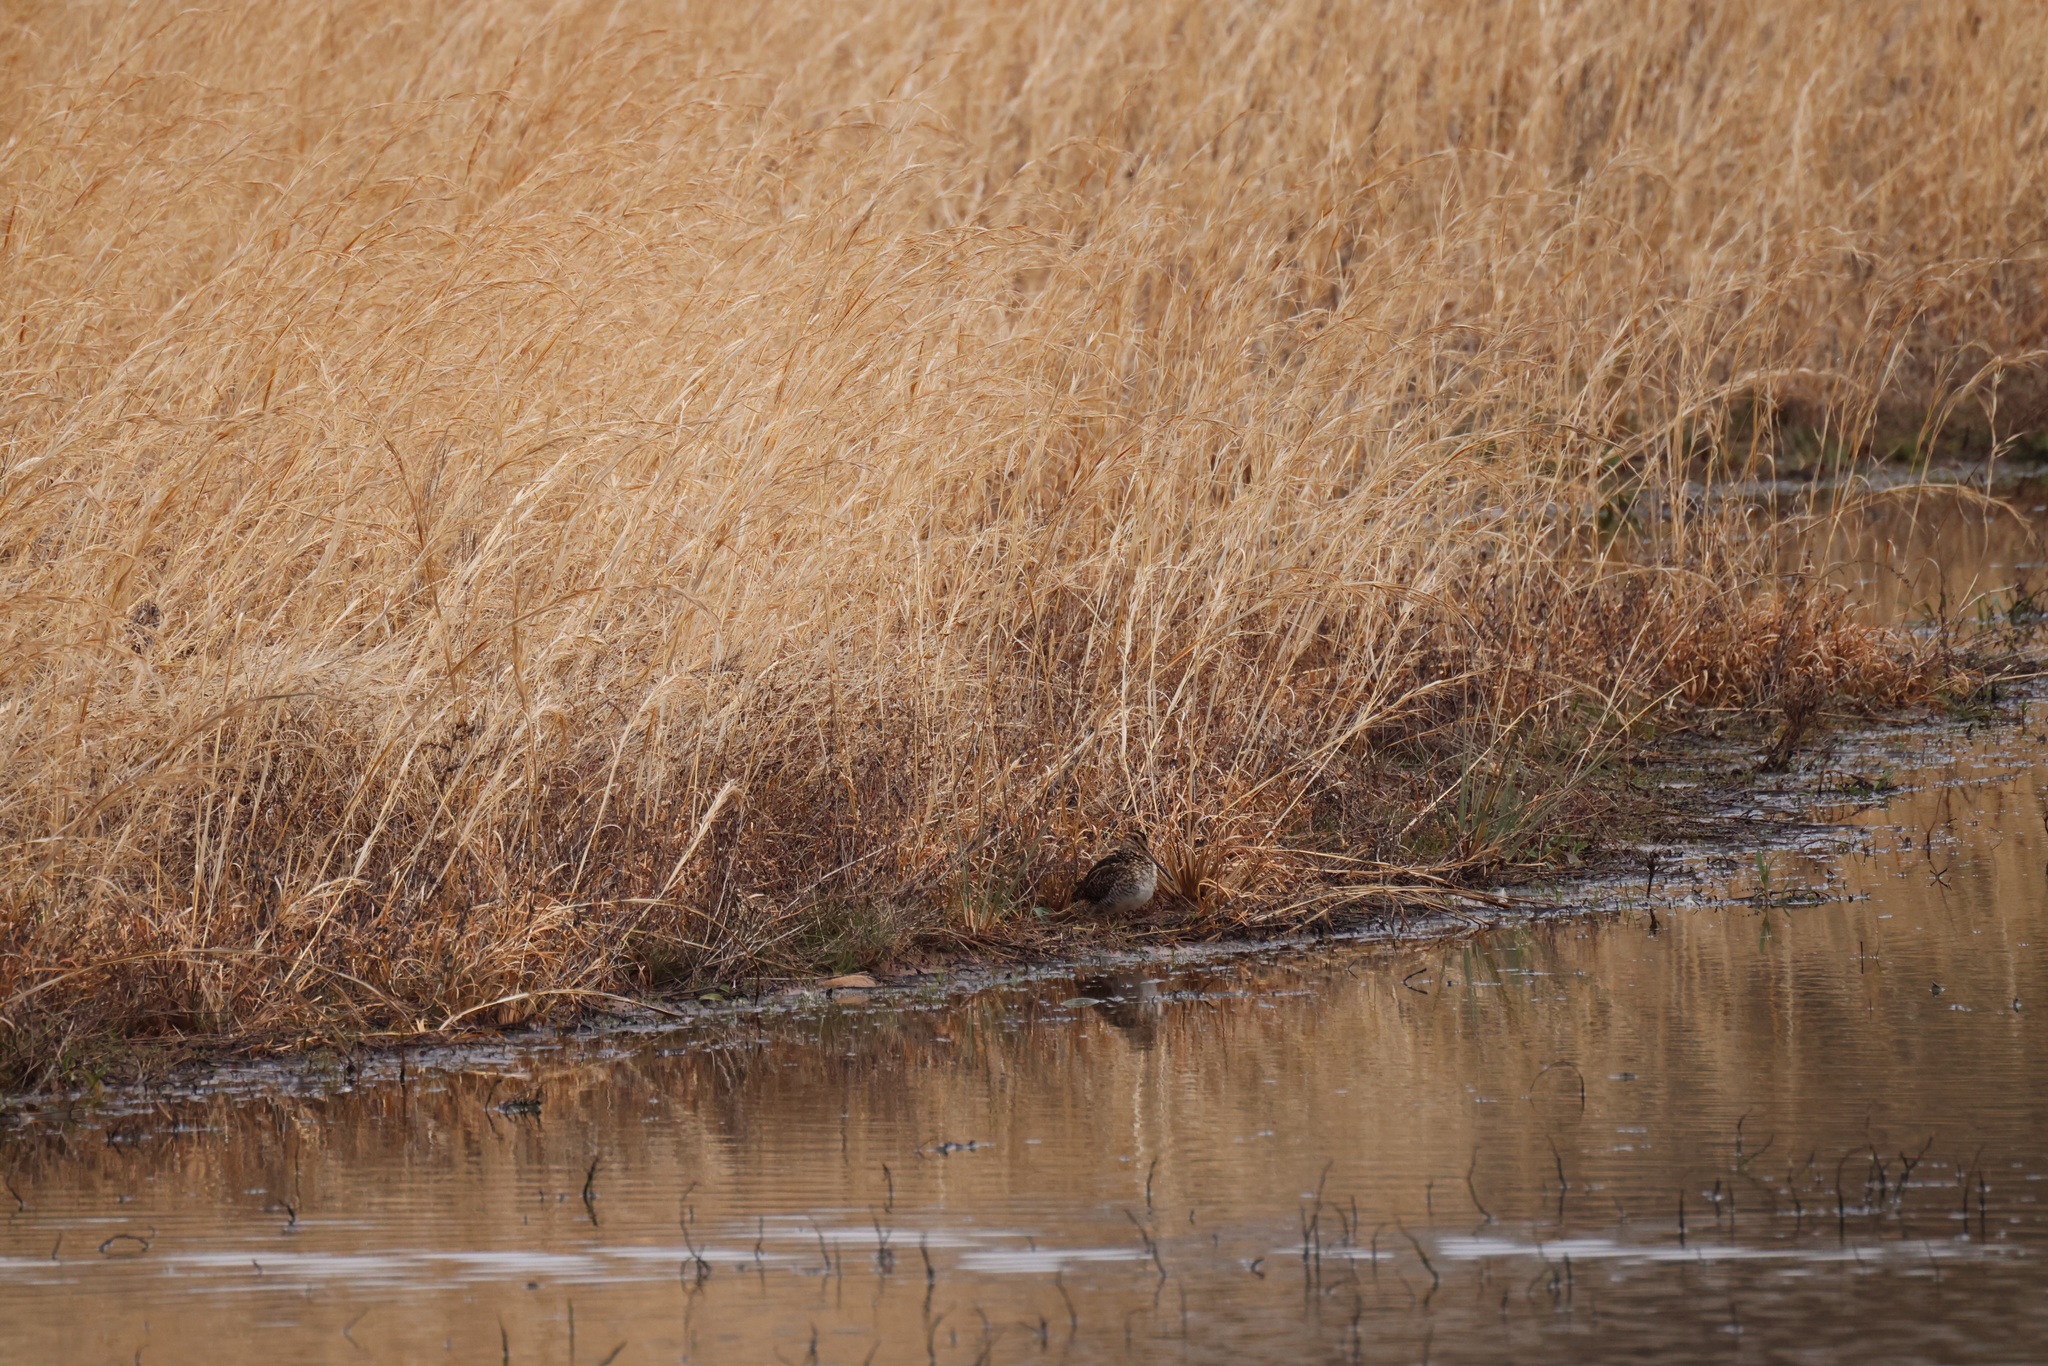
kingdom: Animalia
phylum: Chordata
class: Aves
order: Charadriiformes
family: Scolopacidae
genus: Gallinago
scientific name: Gallinago delicata
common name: Wilson's snipe
